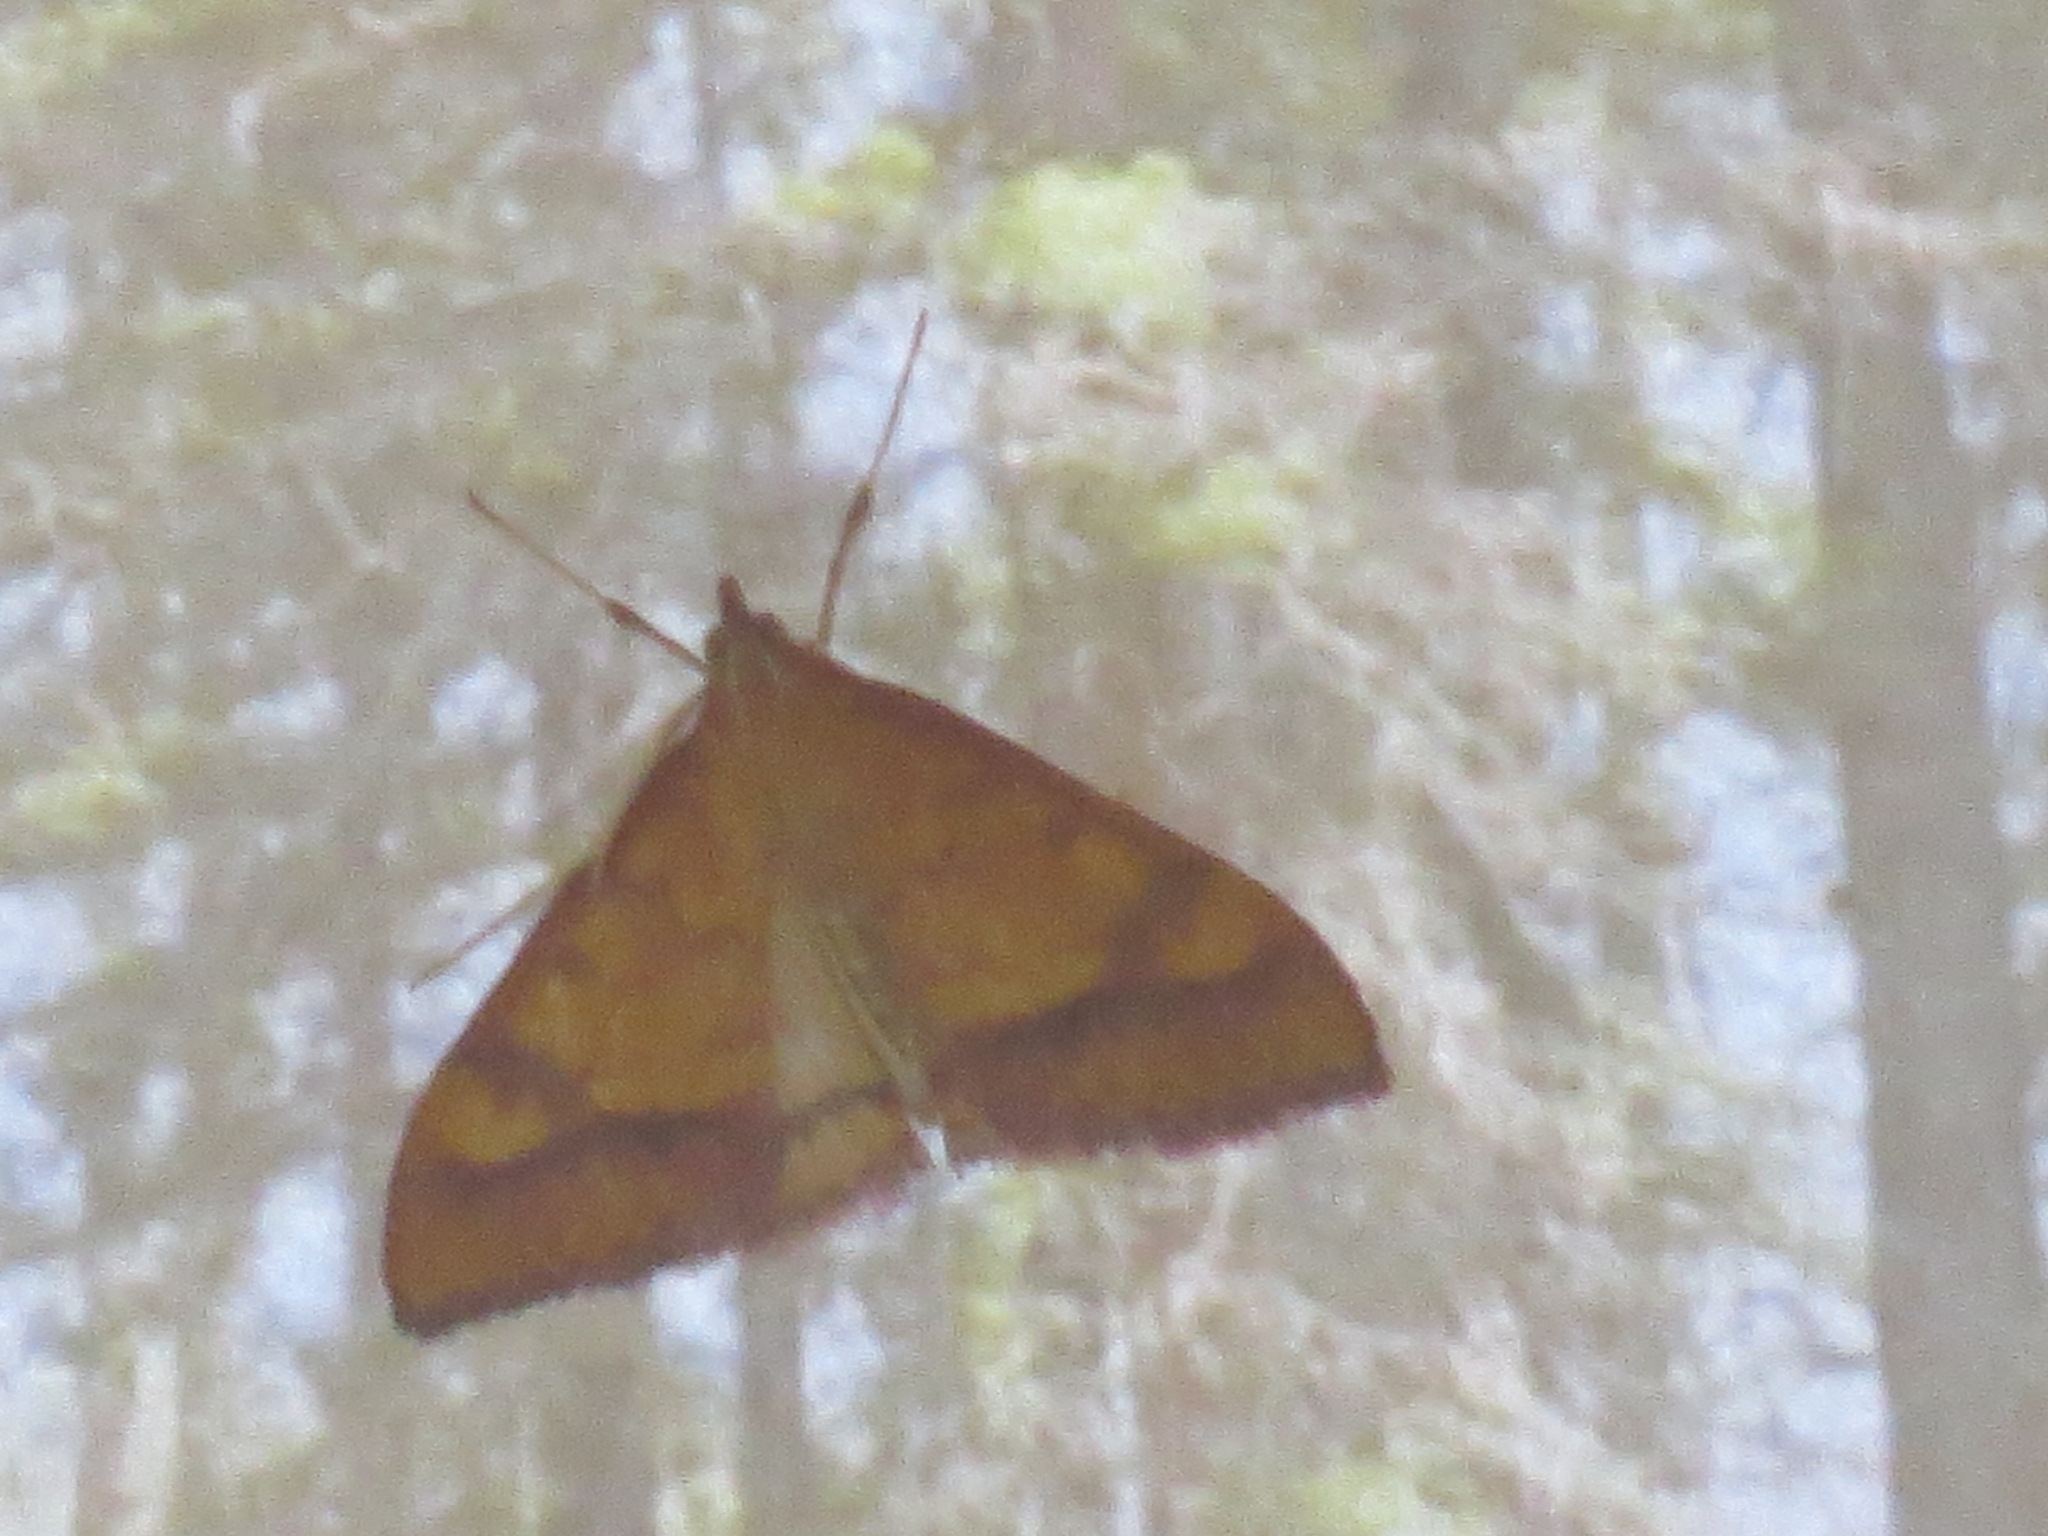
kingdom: Animalia
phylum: Arthropoda
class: Insecta
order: Lepidoptera
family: Crambidae
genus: Pyrausta
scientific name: Pyrausta perrubralis
